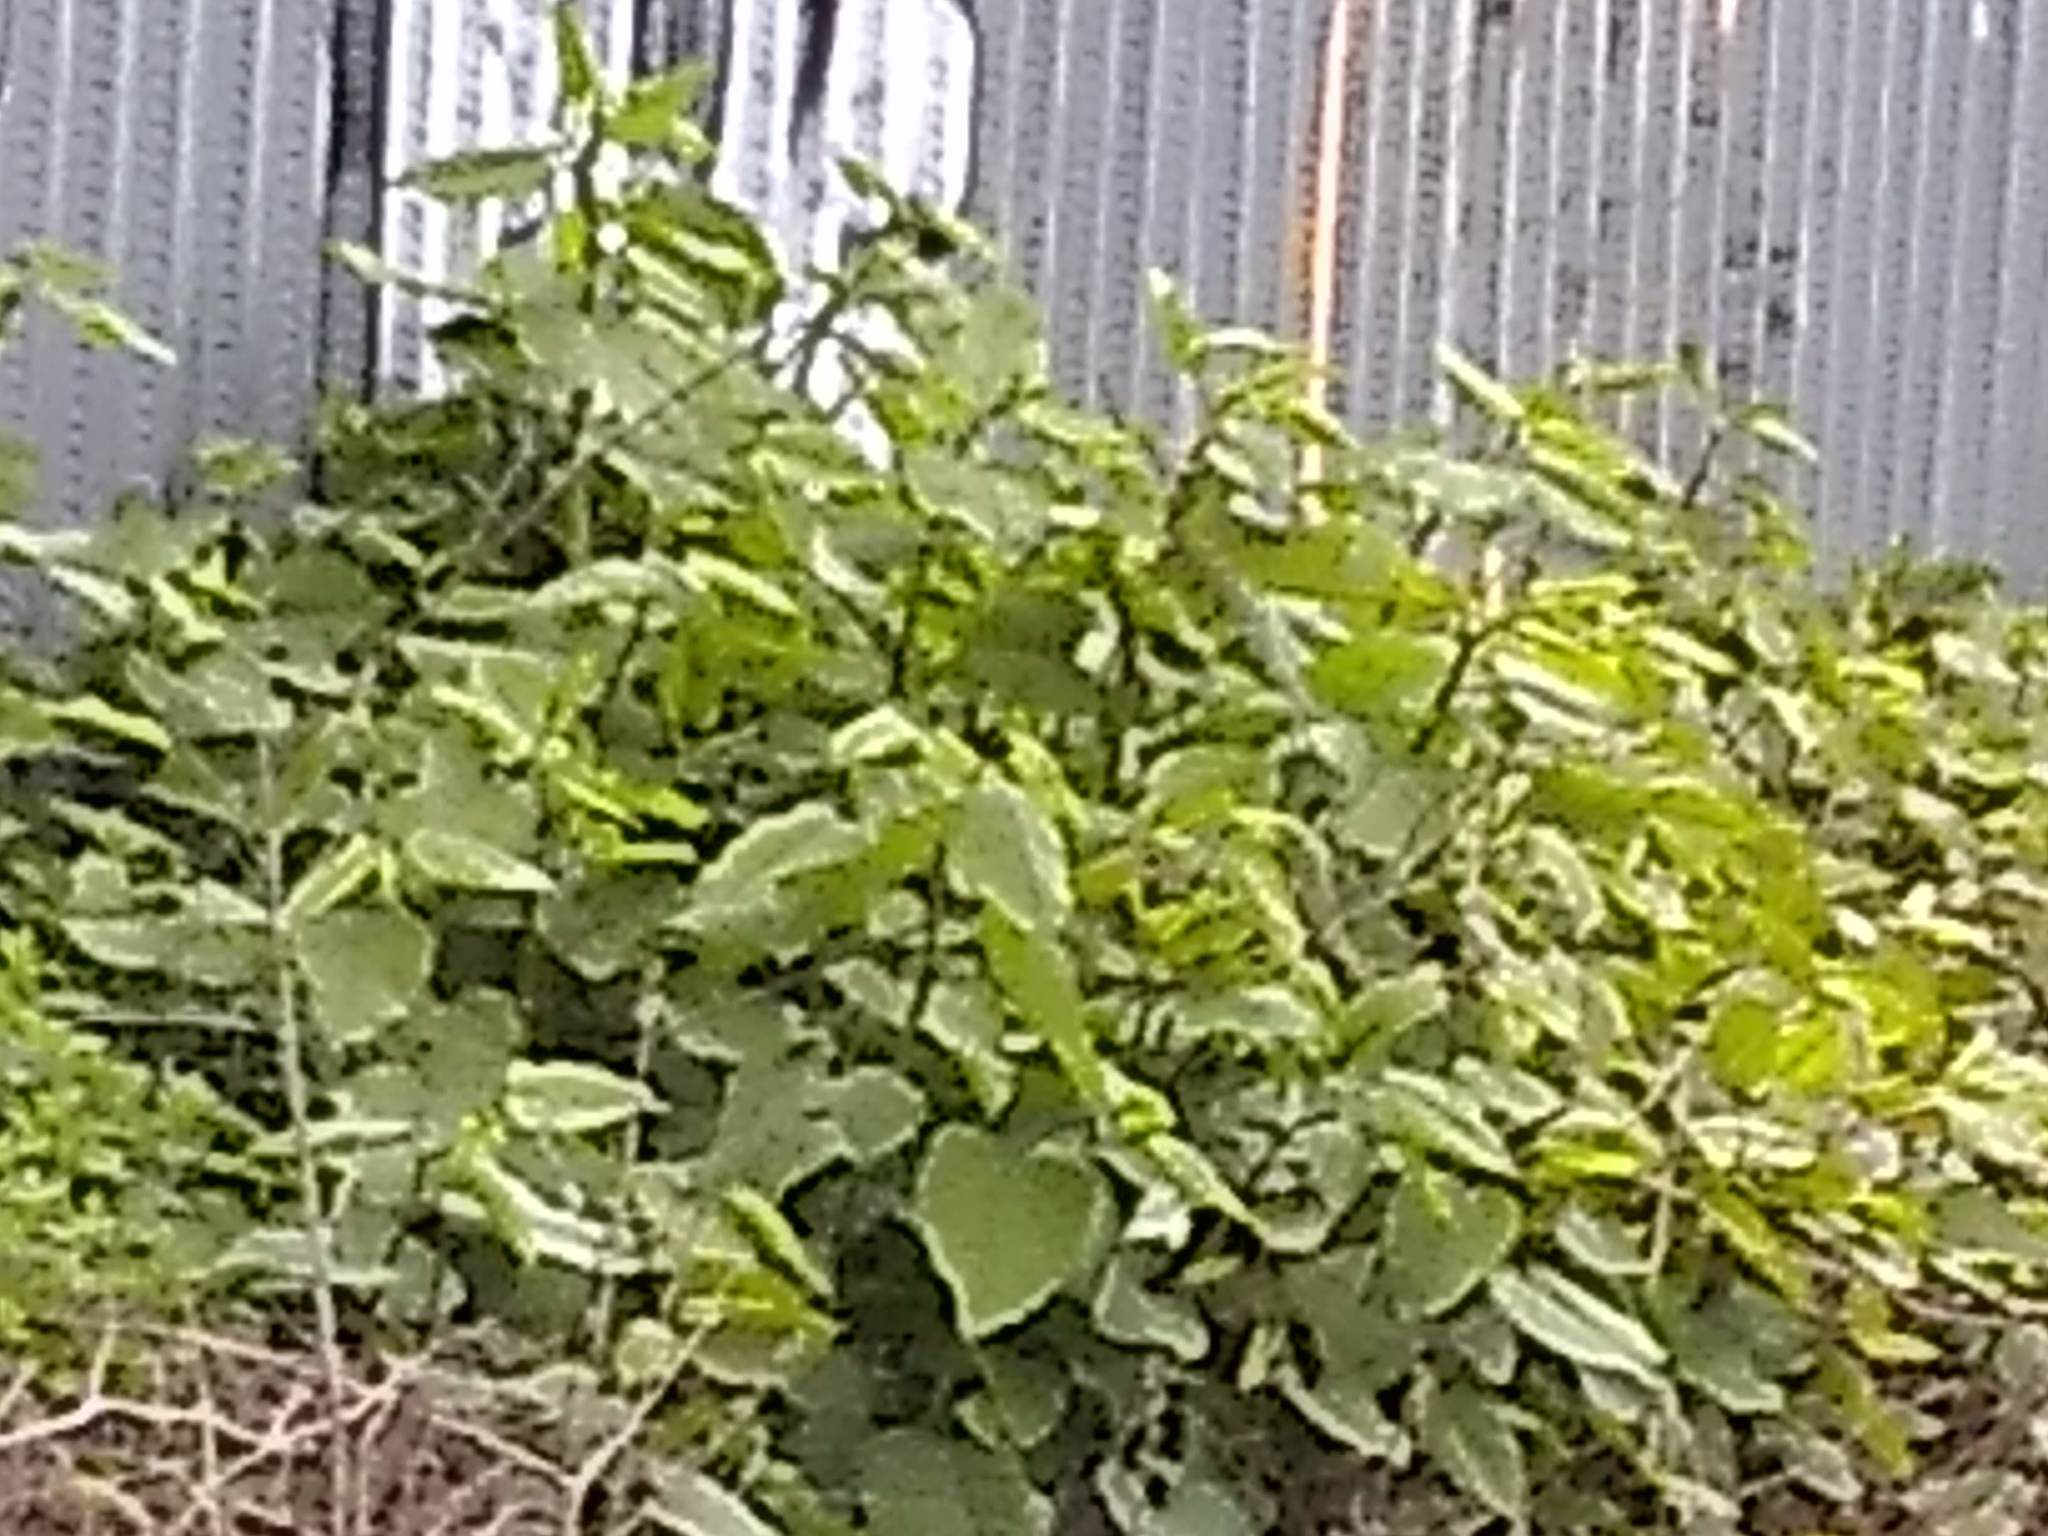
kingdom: Plantae
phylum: Tracheophyta
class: Magnoliopsida
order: Caryophyllales
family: Polygonaceae
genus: Reynoutria
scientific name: Reynoutria japonica
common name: Japanese knotweed
